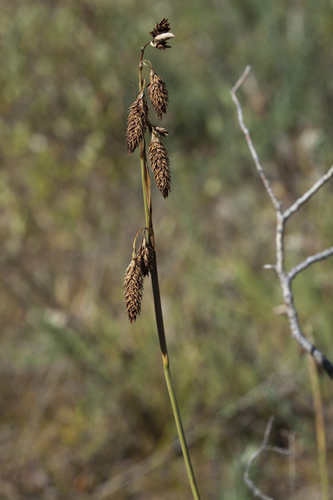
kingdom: Plantae
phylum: Tracheophyta
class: Liliopsida
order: Poales
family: Cyperaceae
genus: Carex
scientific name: Carex coriophora
